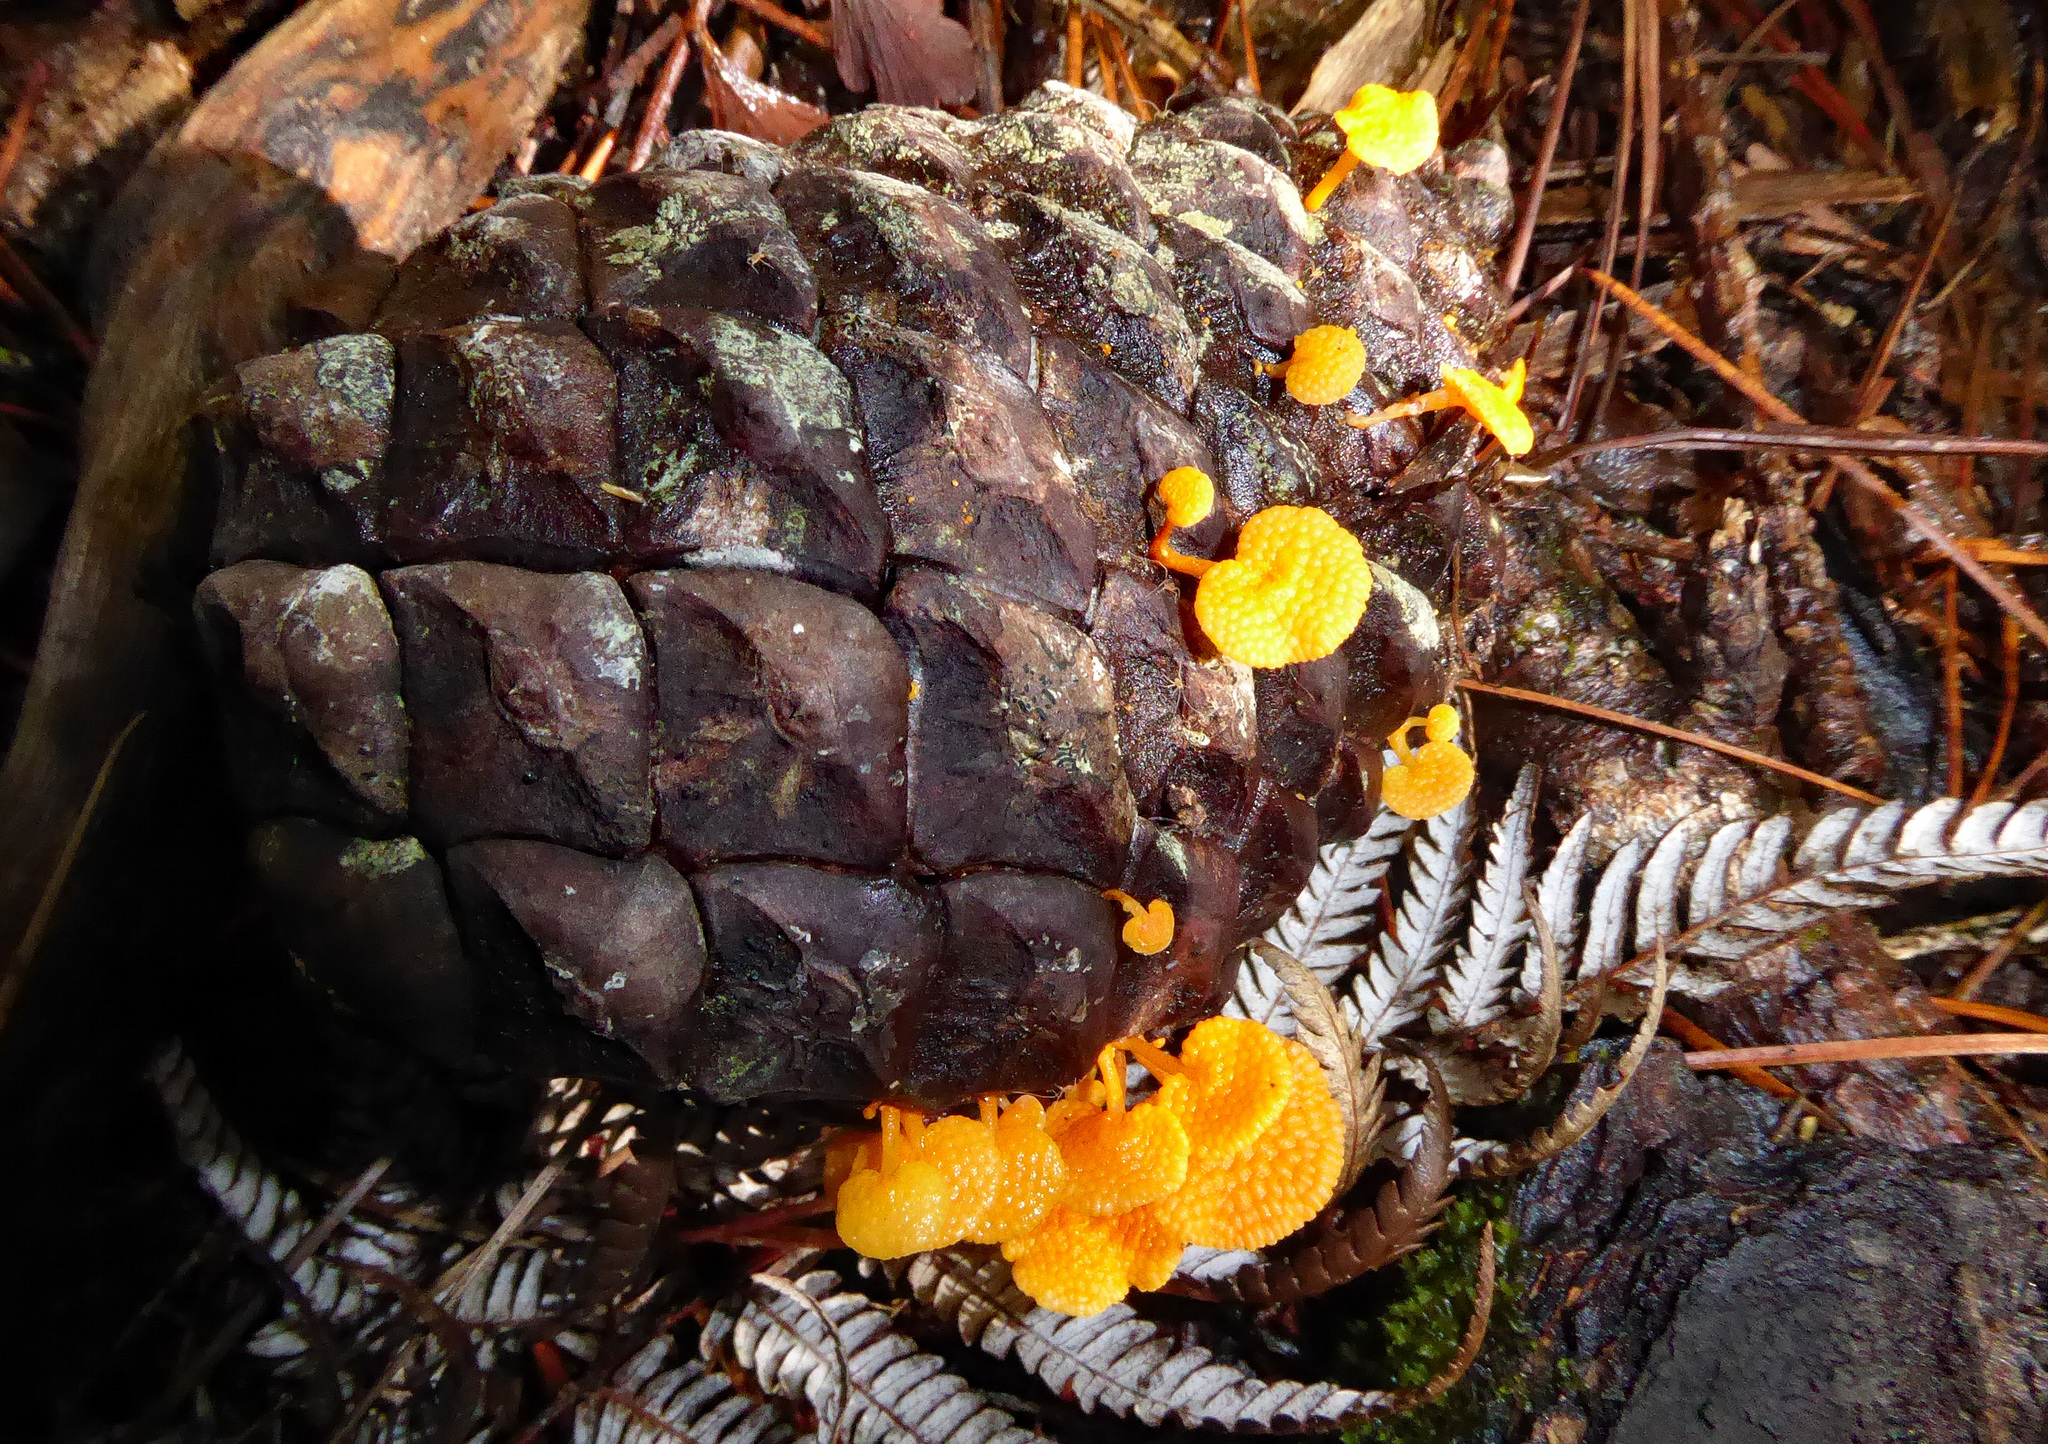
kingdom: Fungi
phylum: Basidiomycota
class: Agaricomycetes
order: Agaricales
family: Mycenaceae
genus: Favolaschia
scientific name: Favolaschia claudopus
